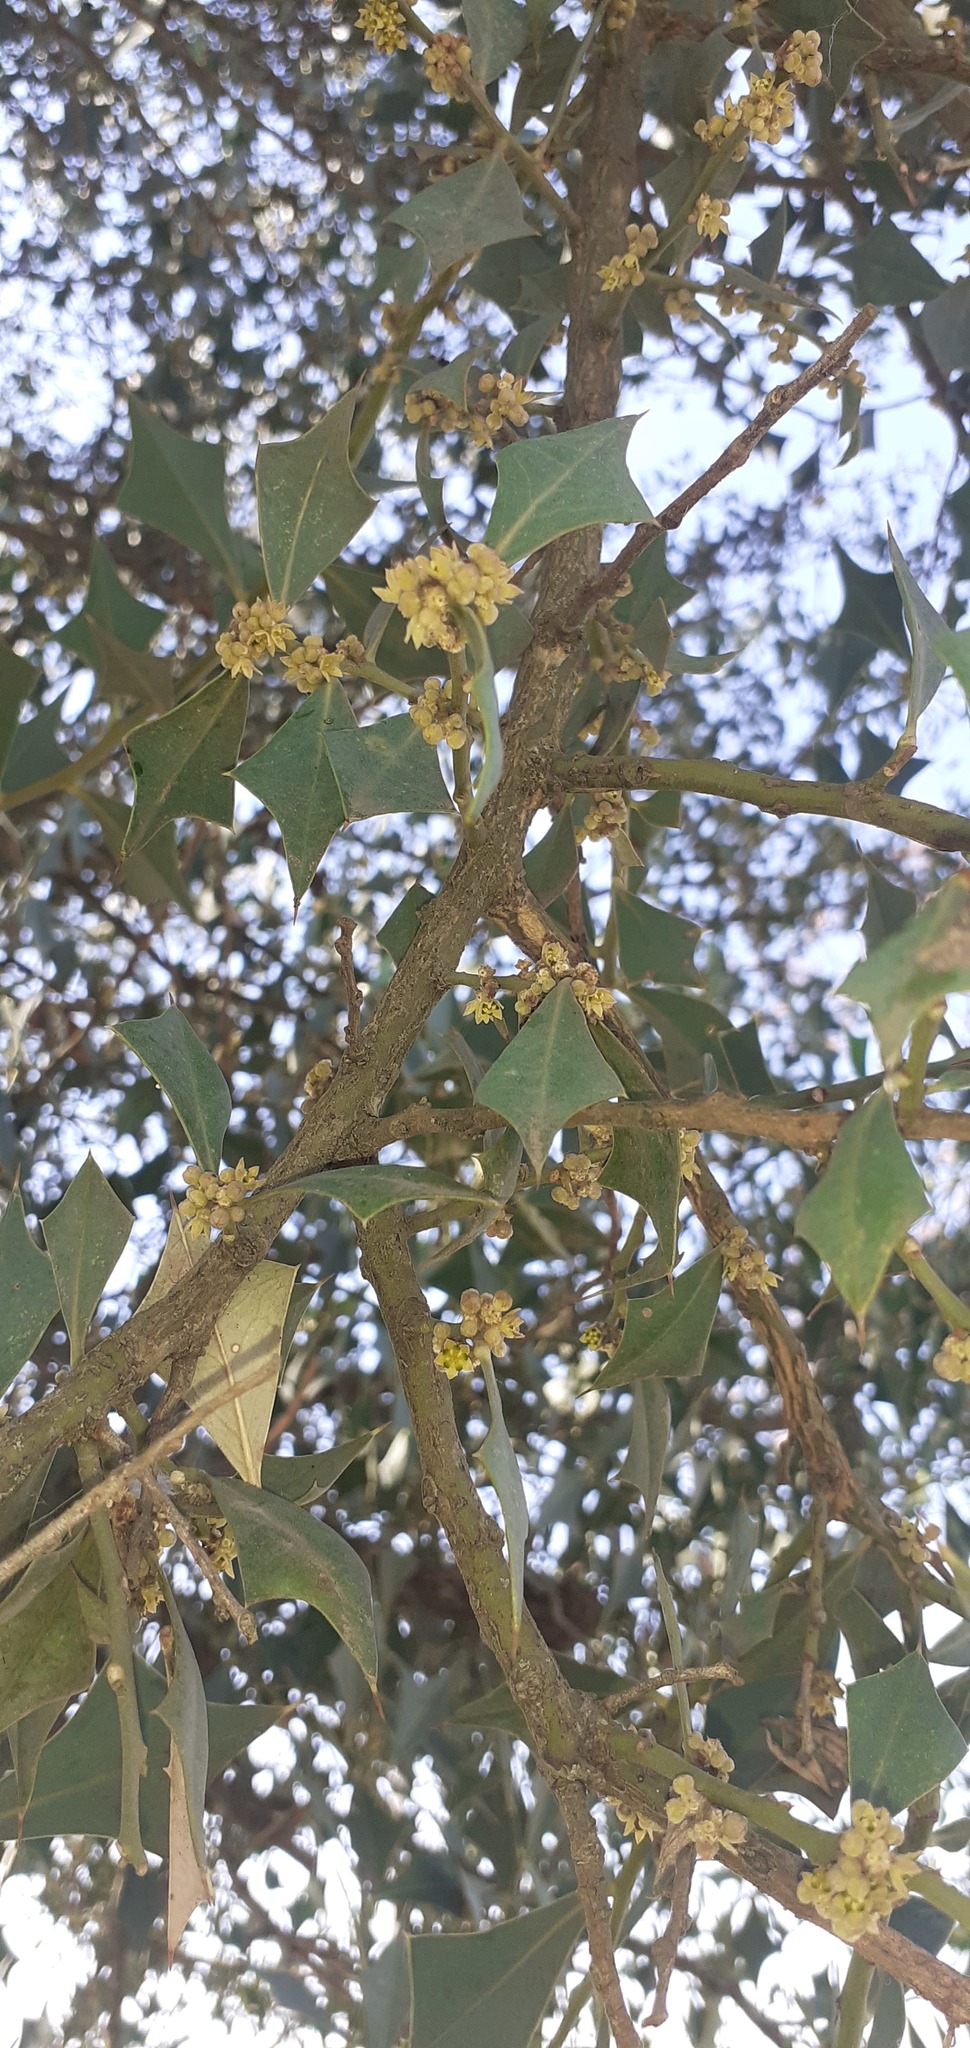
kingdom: Plantae
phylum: Tracheophyta
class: Magnoliopsida
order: Santalales
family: Cervantesiaceae
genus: Jodina
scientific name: Jodina rhombifolia
